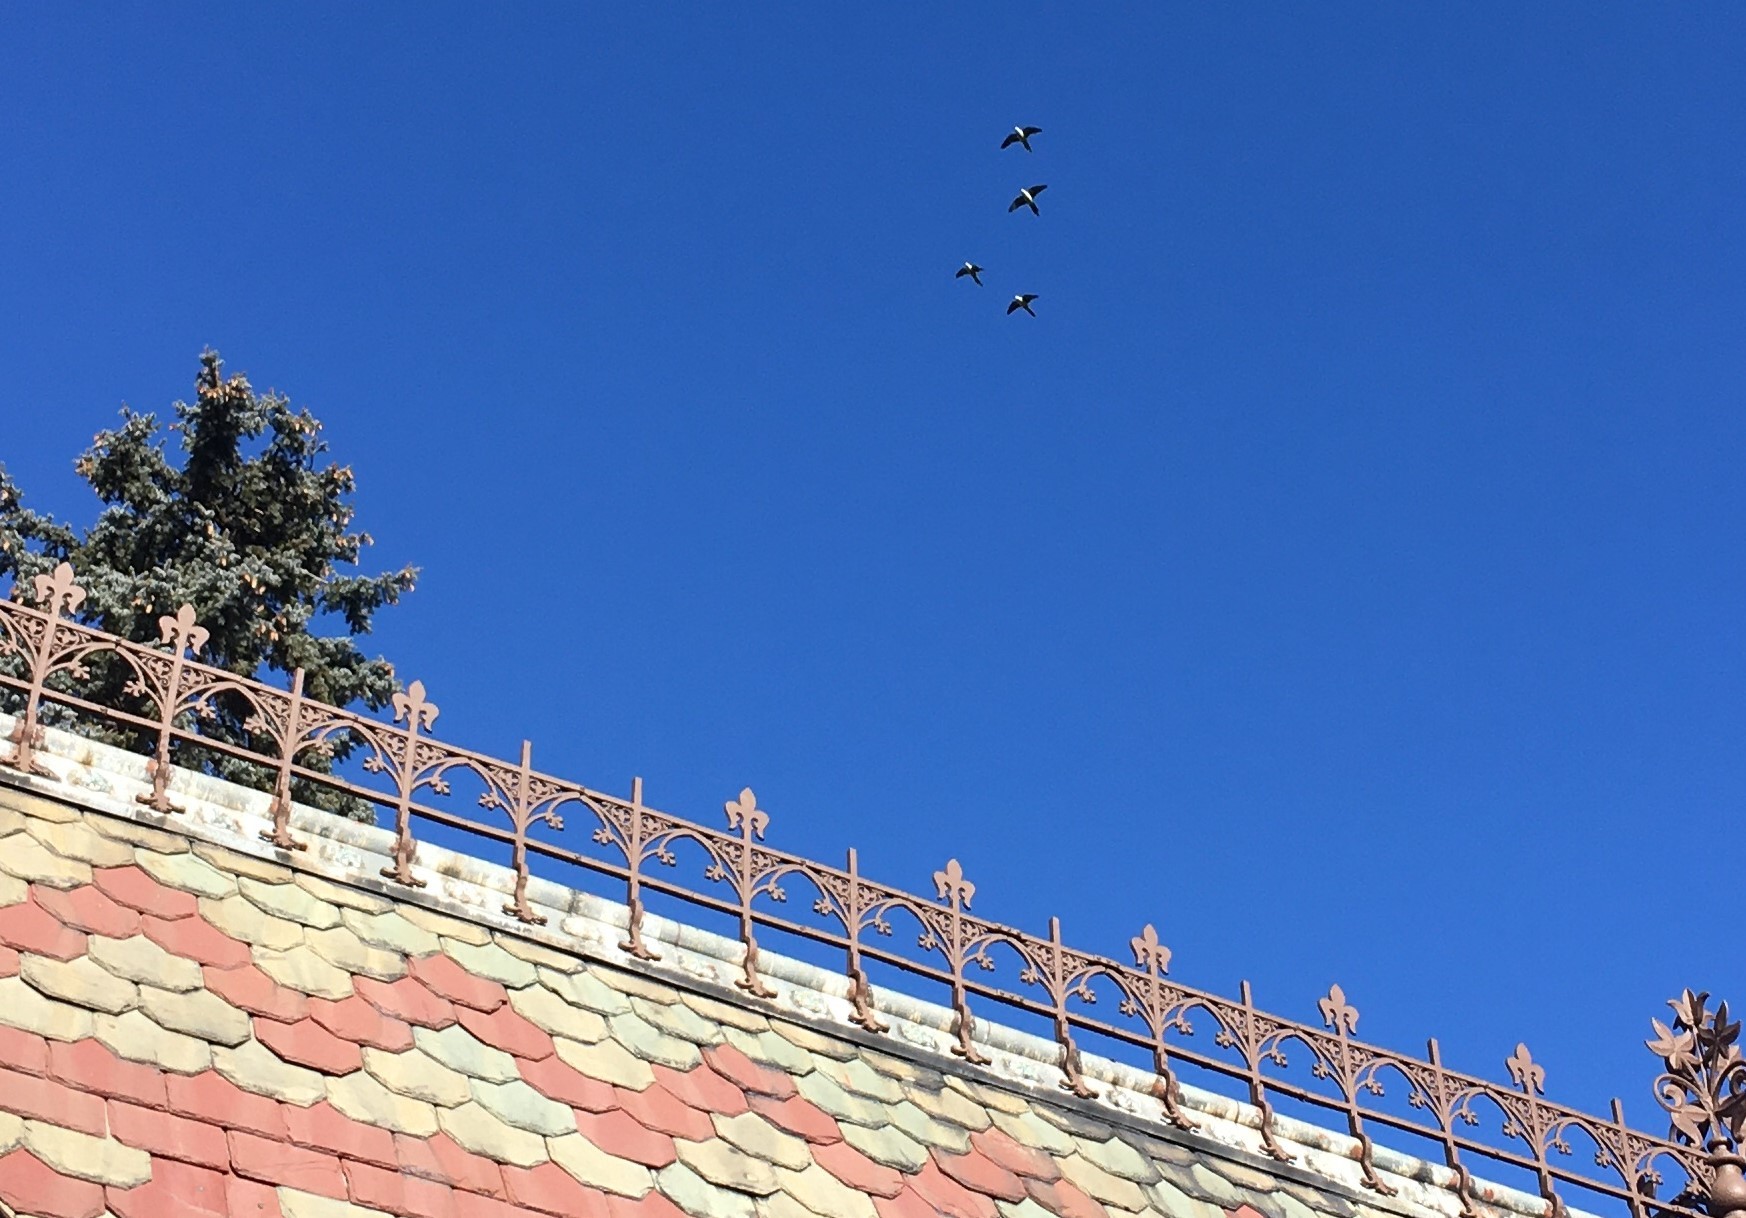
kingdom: Animalia
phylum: Chordata
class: Aves
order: Psittaciformes
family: Psittacidae
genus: Myiopsitta
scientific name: Myiopsitta monachus
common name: Monk parakeet
